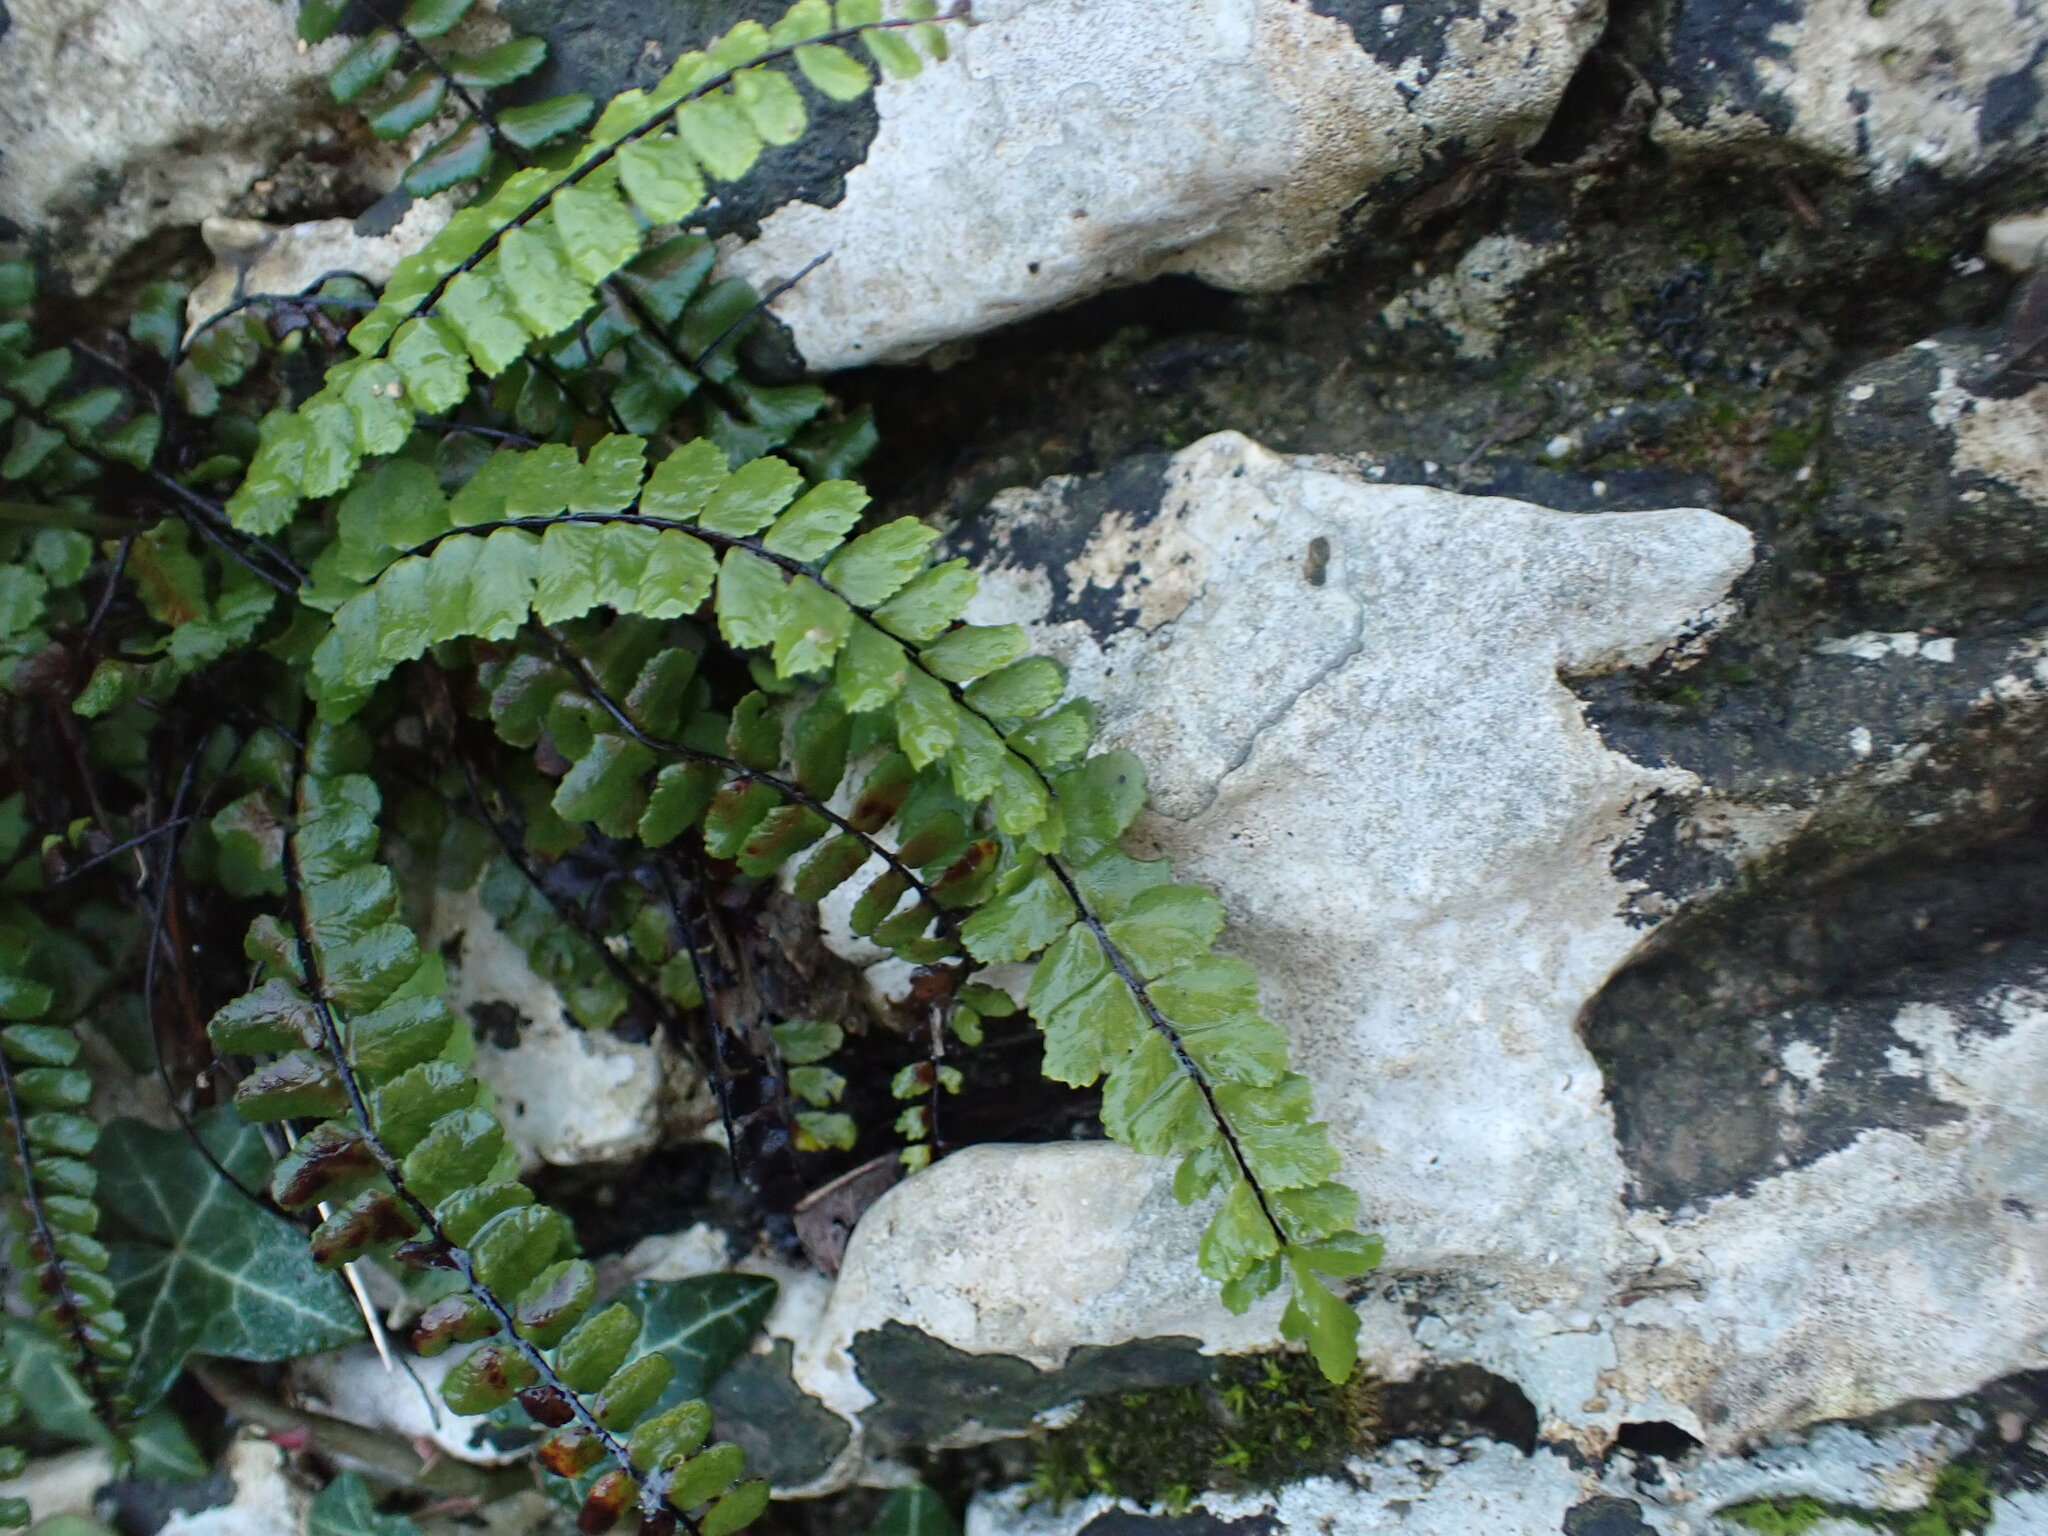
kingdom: Plantae
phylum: Tracheophyta
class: Polypodiopsida
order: Polypodiales
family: Aspleniaceae
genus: Asplenium
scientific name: Asplenium trichomanes
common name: Maidenhair spleenwort
